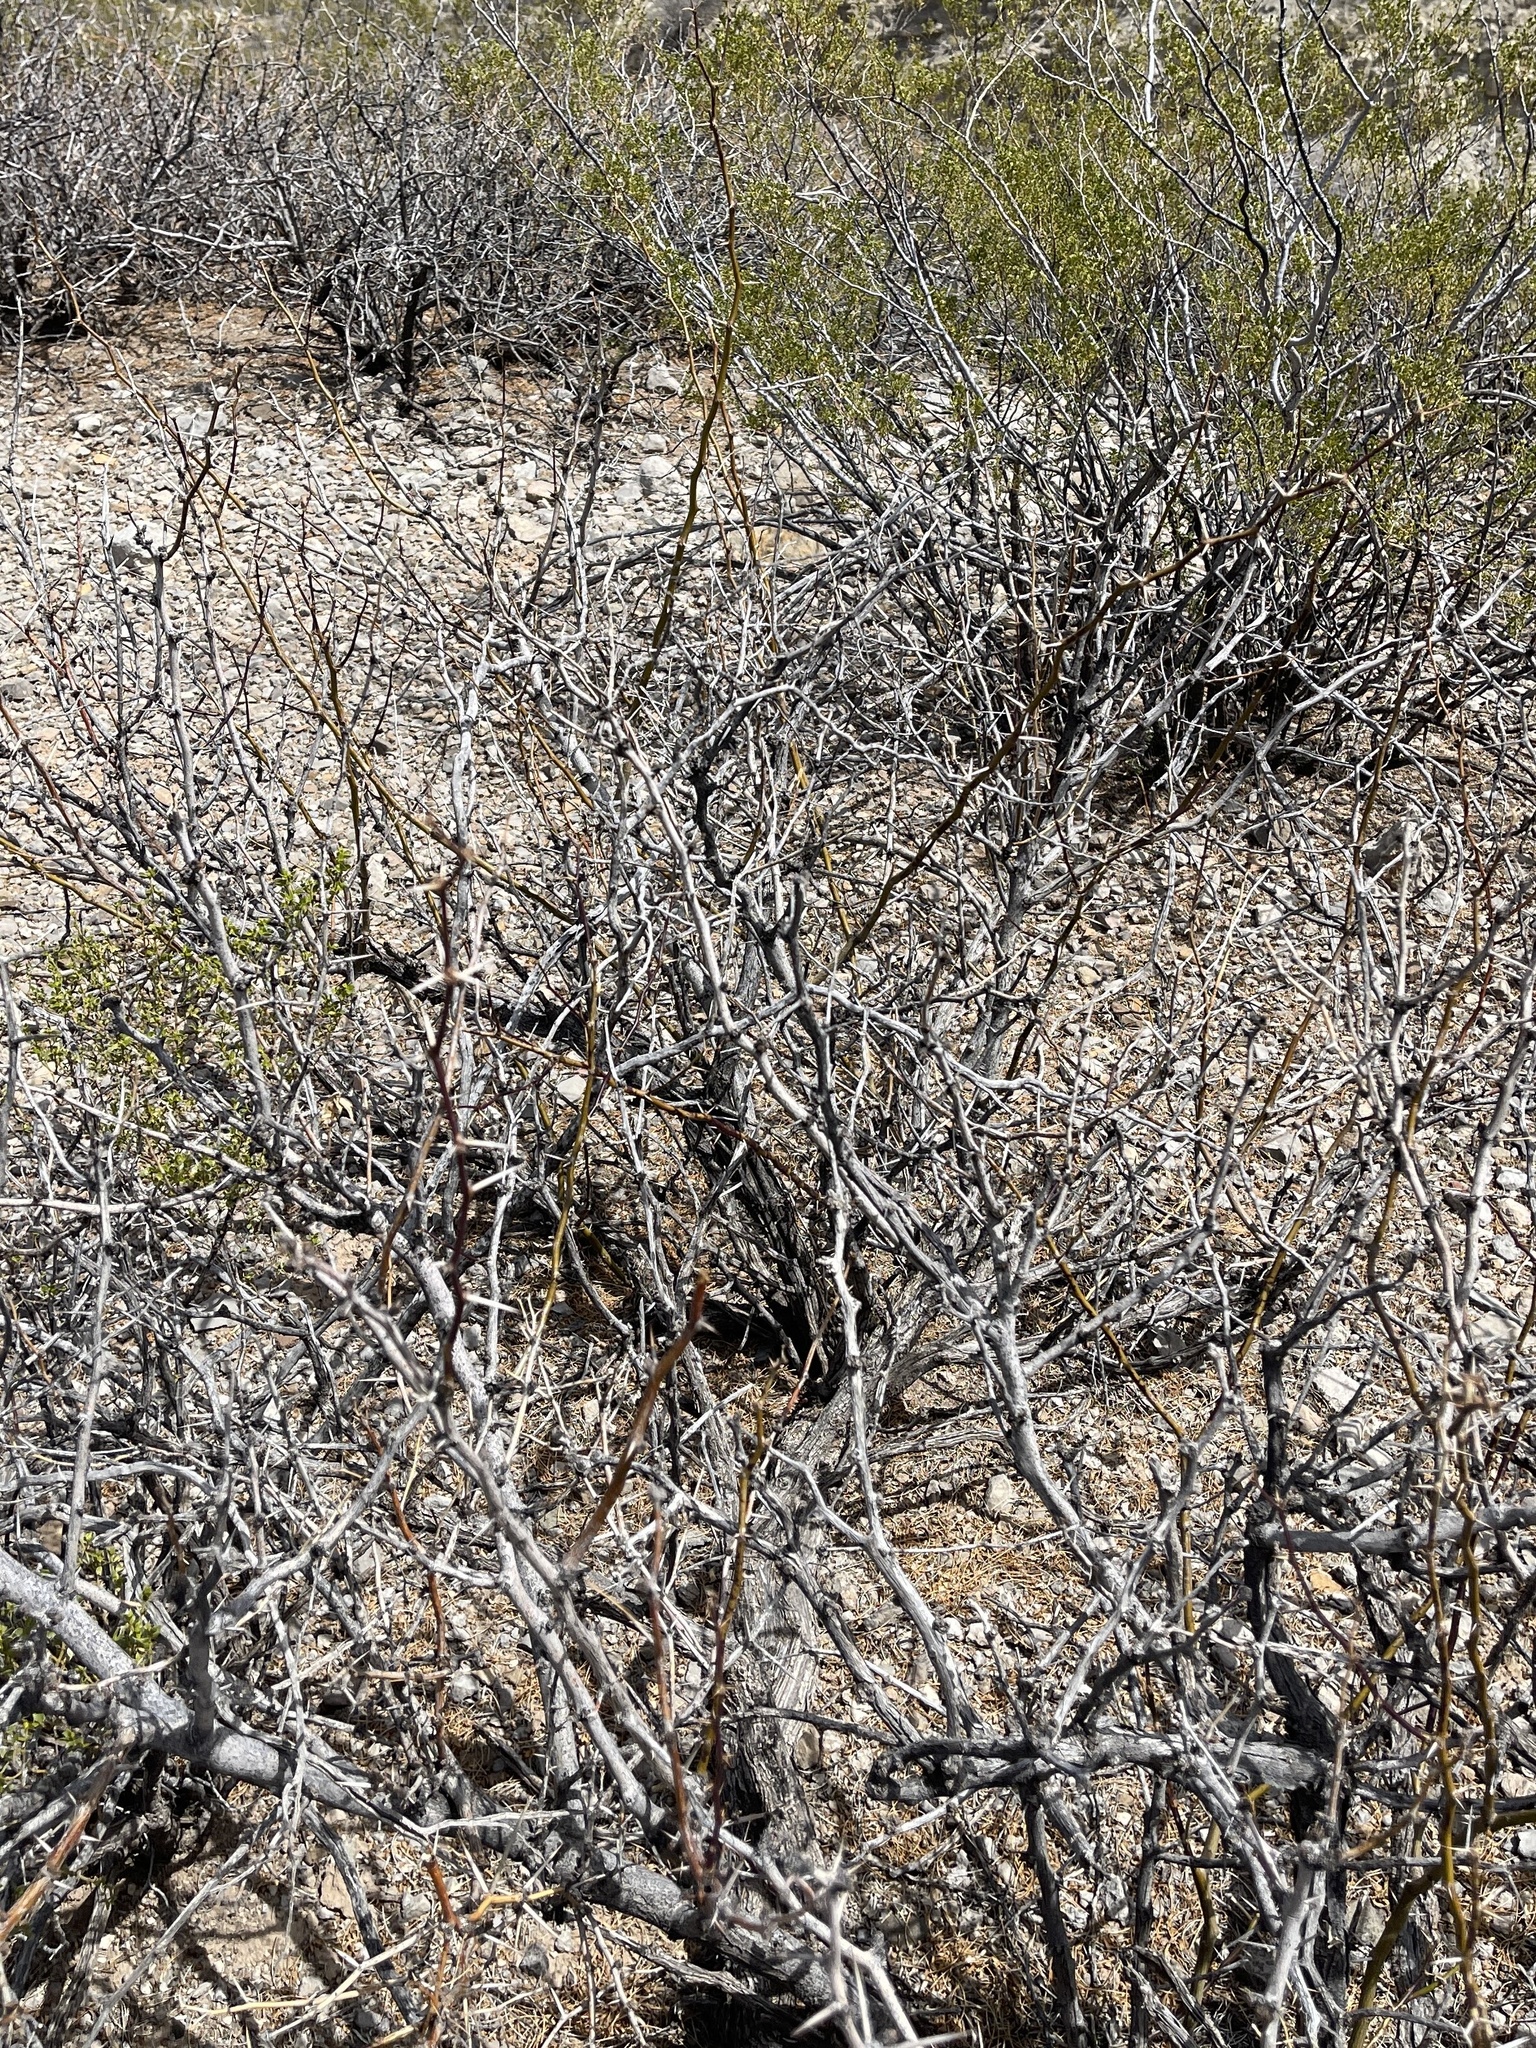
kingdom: Plantae
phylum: Tracheophyta
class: Magnoliopsida
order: Fabales
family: Fabaceae
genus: Prosopis
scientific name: Prosopis glandulosa
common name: Honey mesquite
